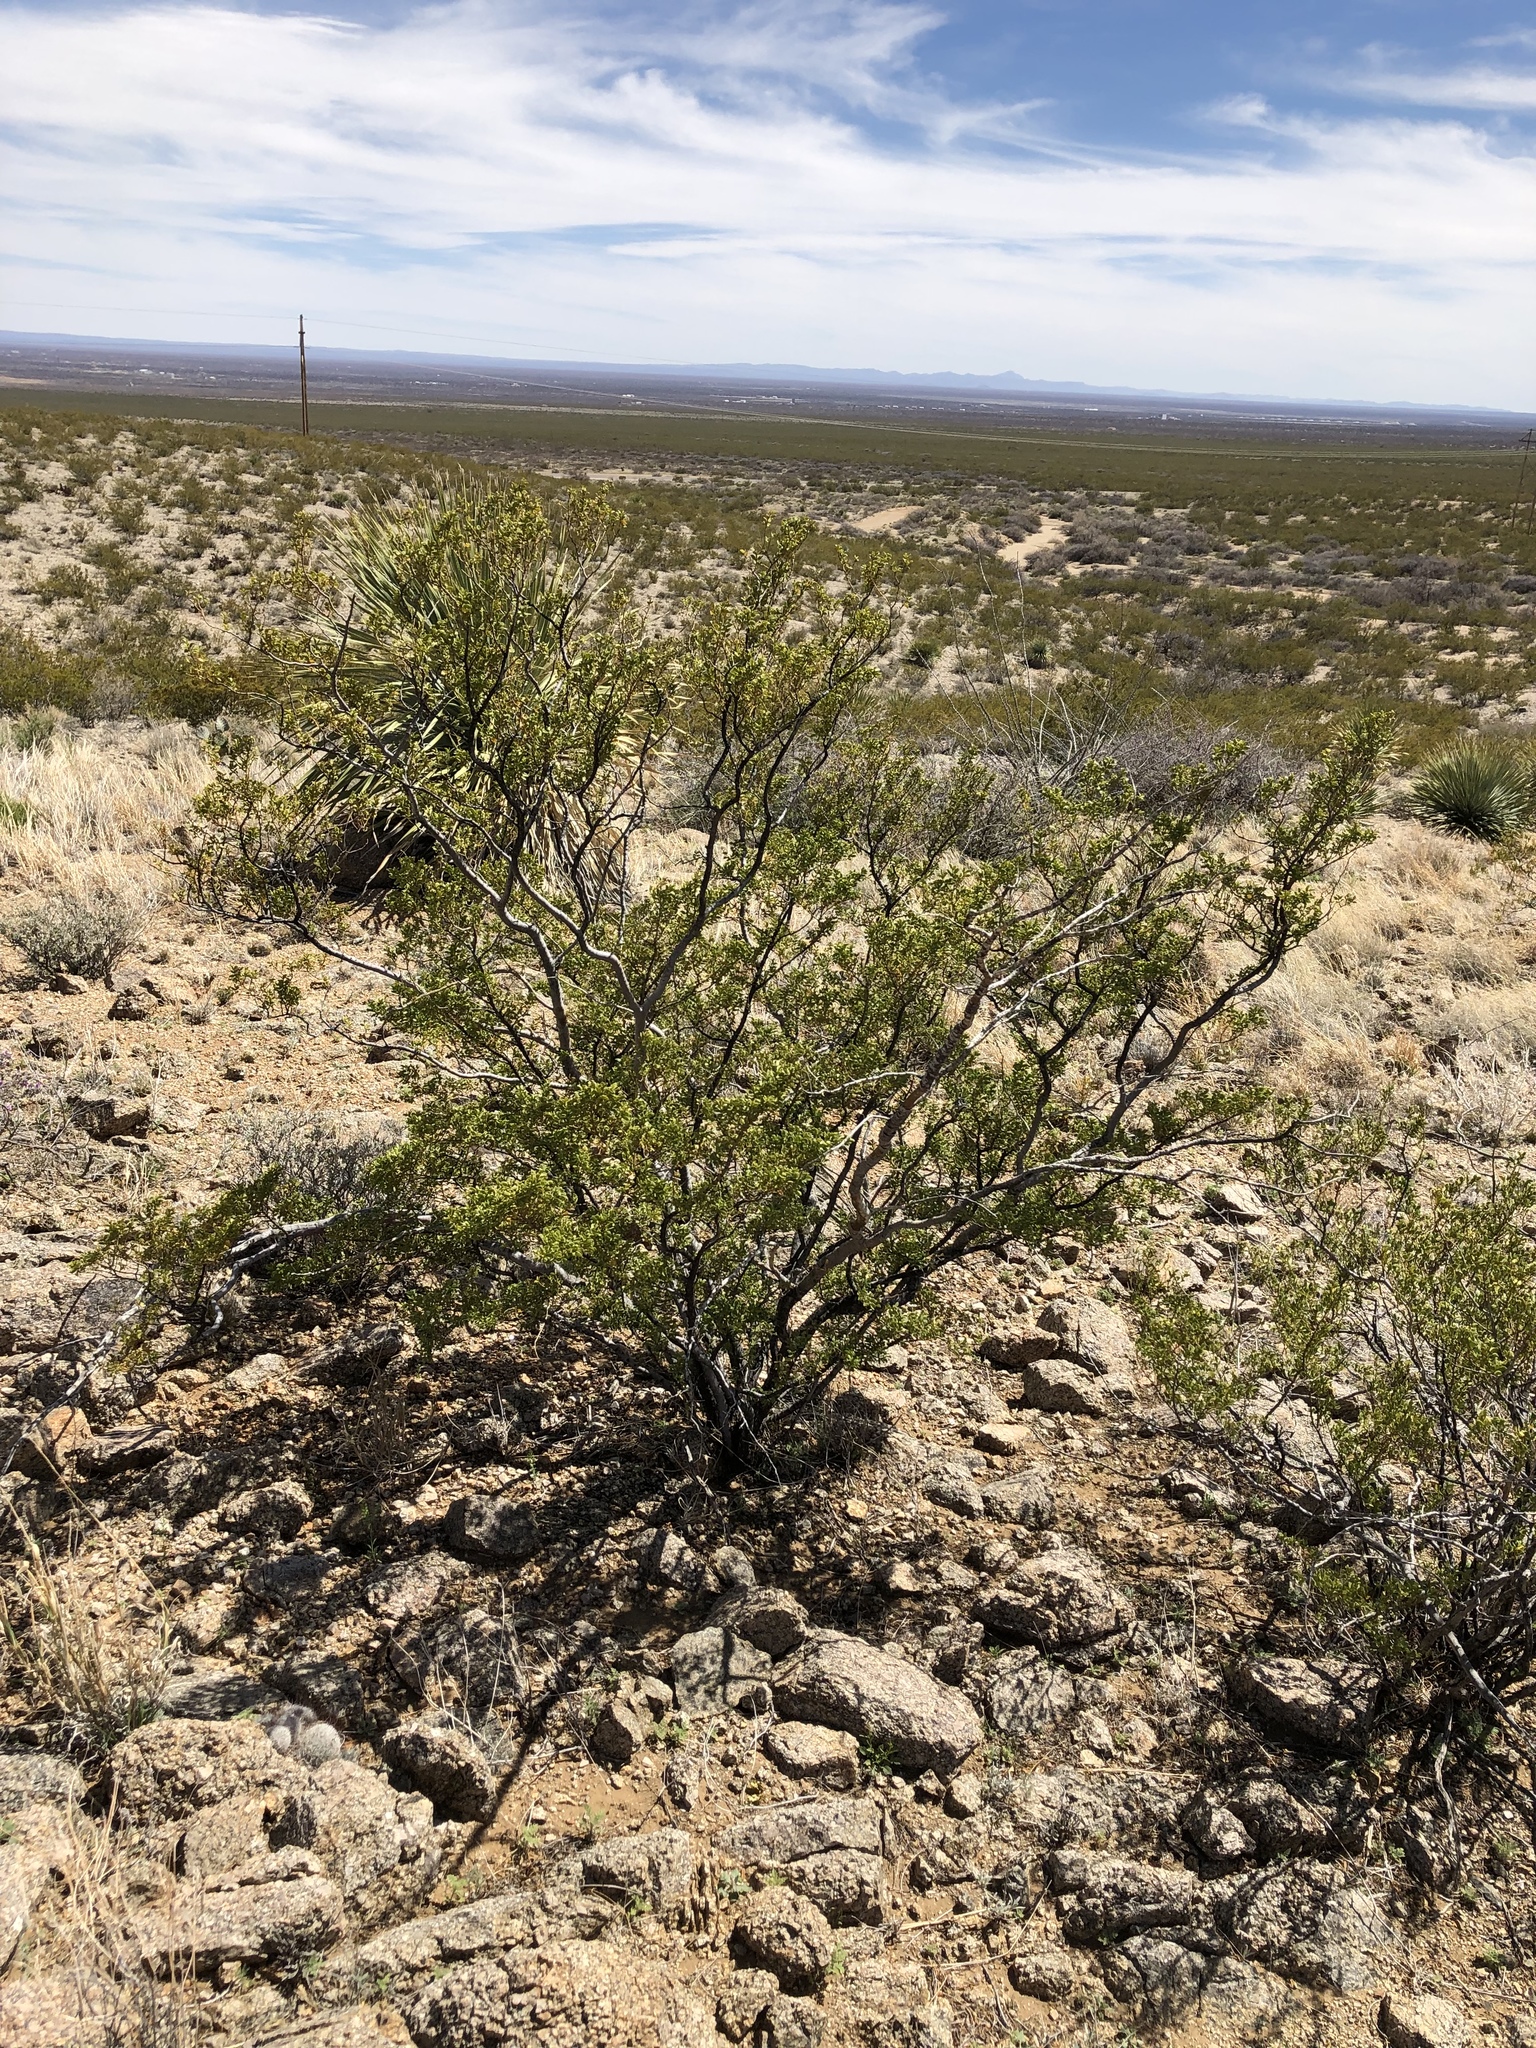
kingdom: Plantae
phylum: Tracheophyta
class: Magnoliopsida
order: Zygophyllales
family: Zygophyllaceae
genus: Larrea
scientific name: Larrea tridentata
